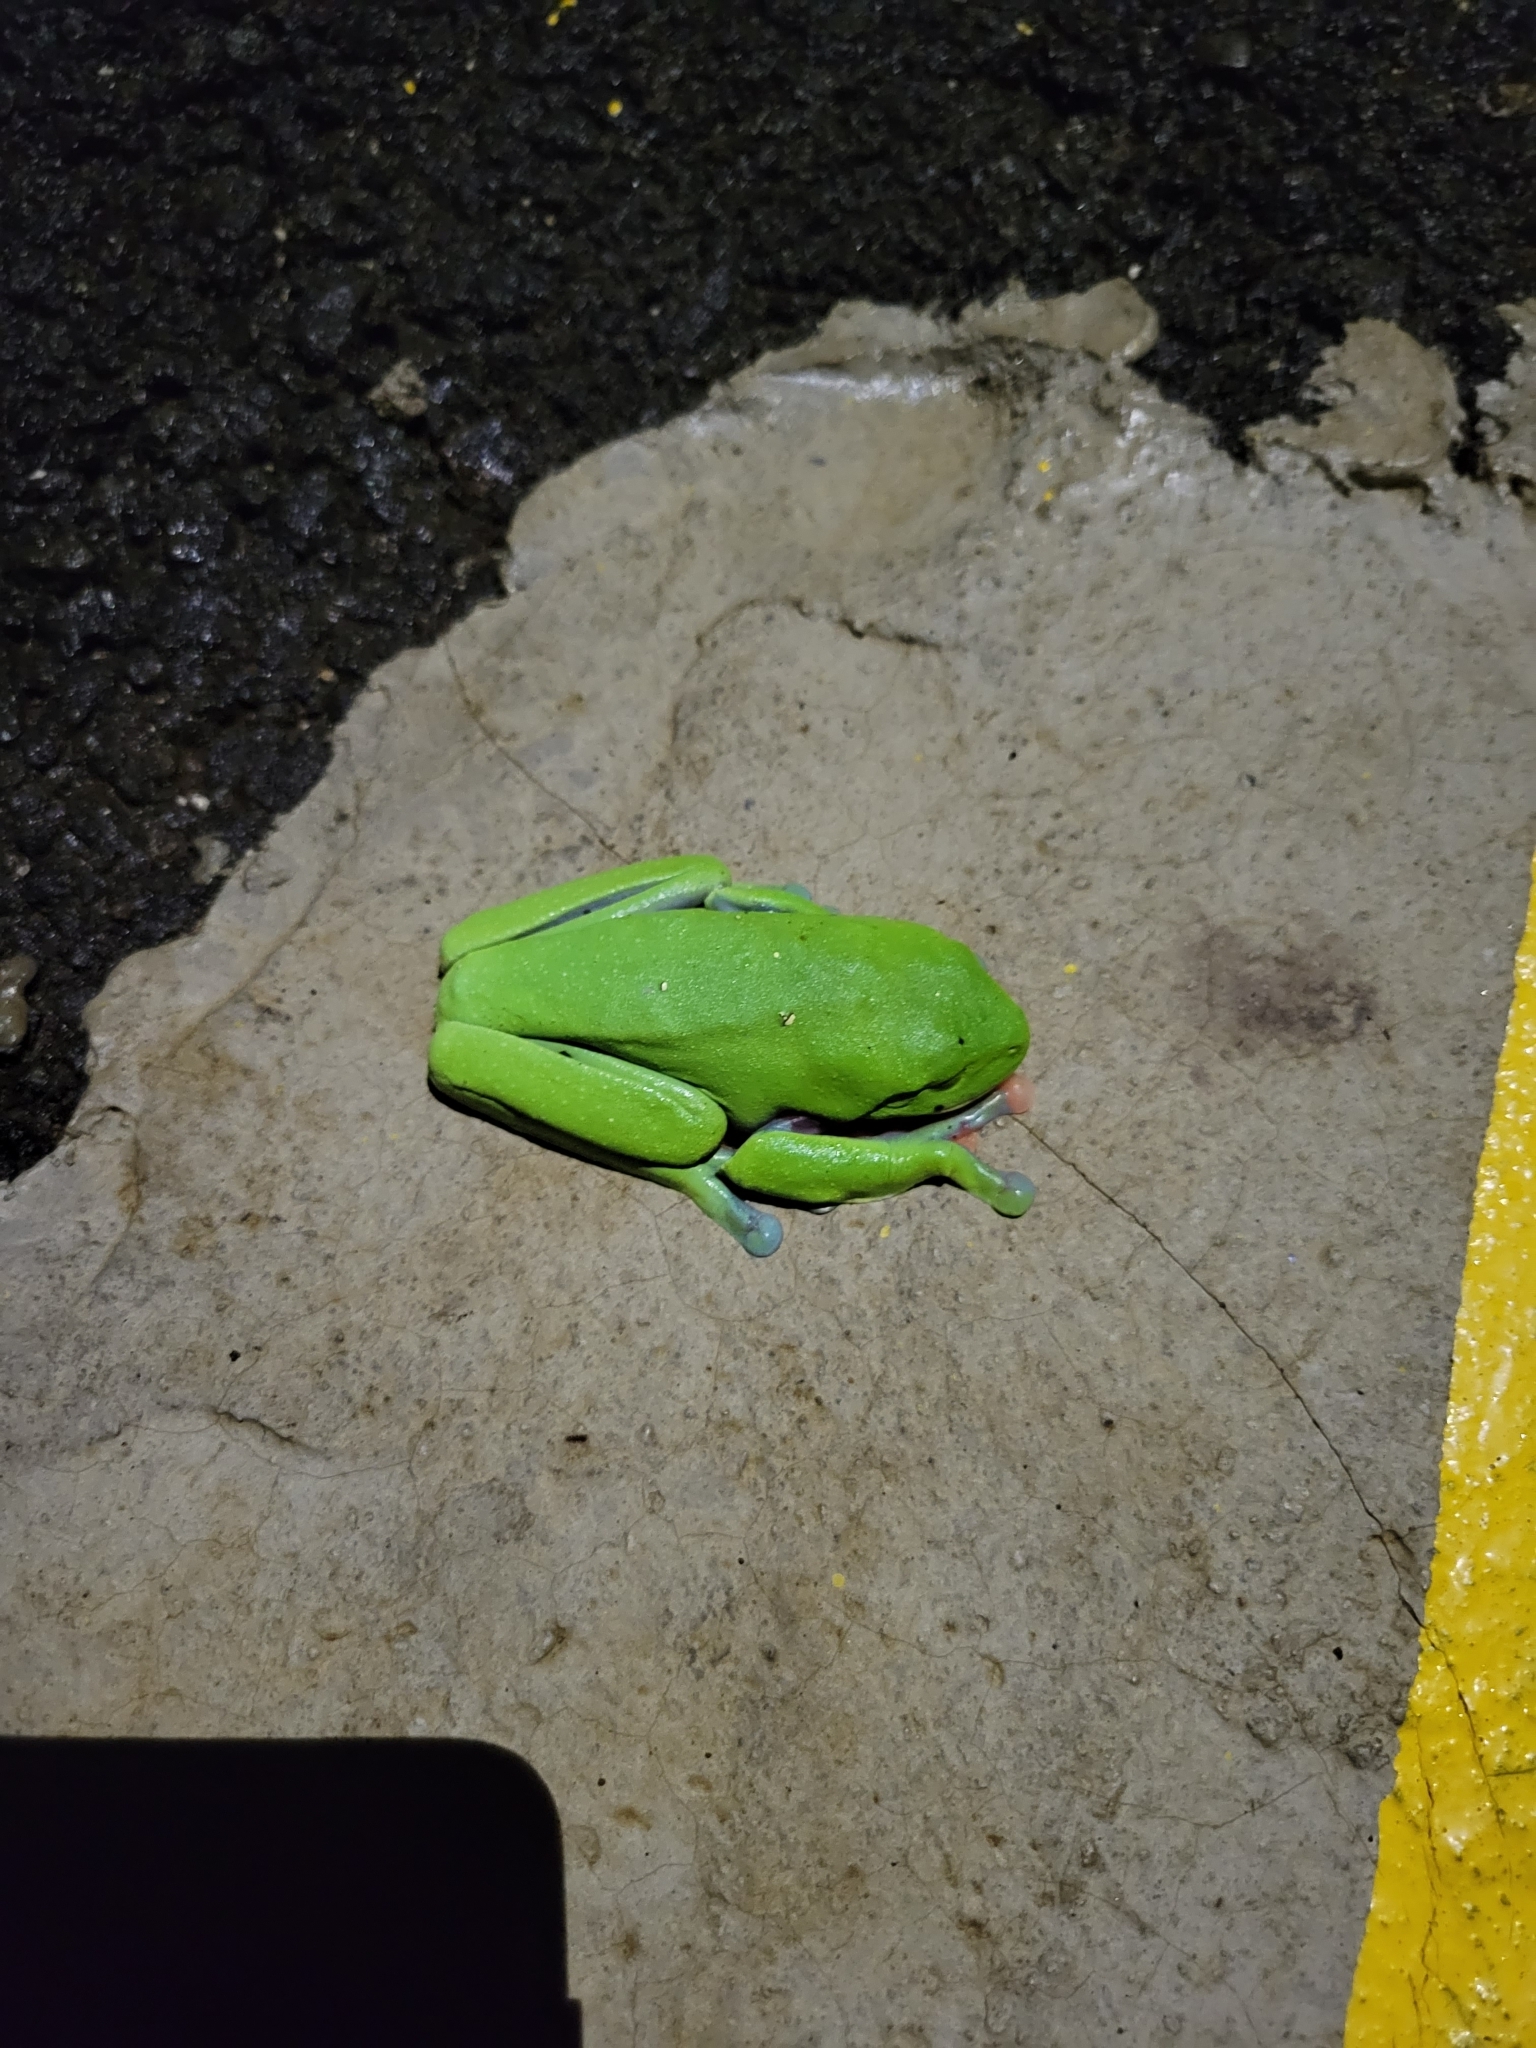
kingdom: Animalia
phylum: Chordata
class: Amphibia
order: Anura
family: Phyllomedusidae
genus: Agalychnis
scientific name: Agalychnis annae
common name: Blue-sided treefrog
